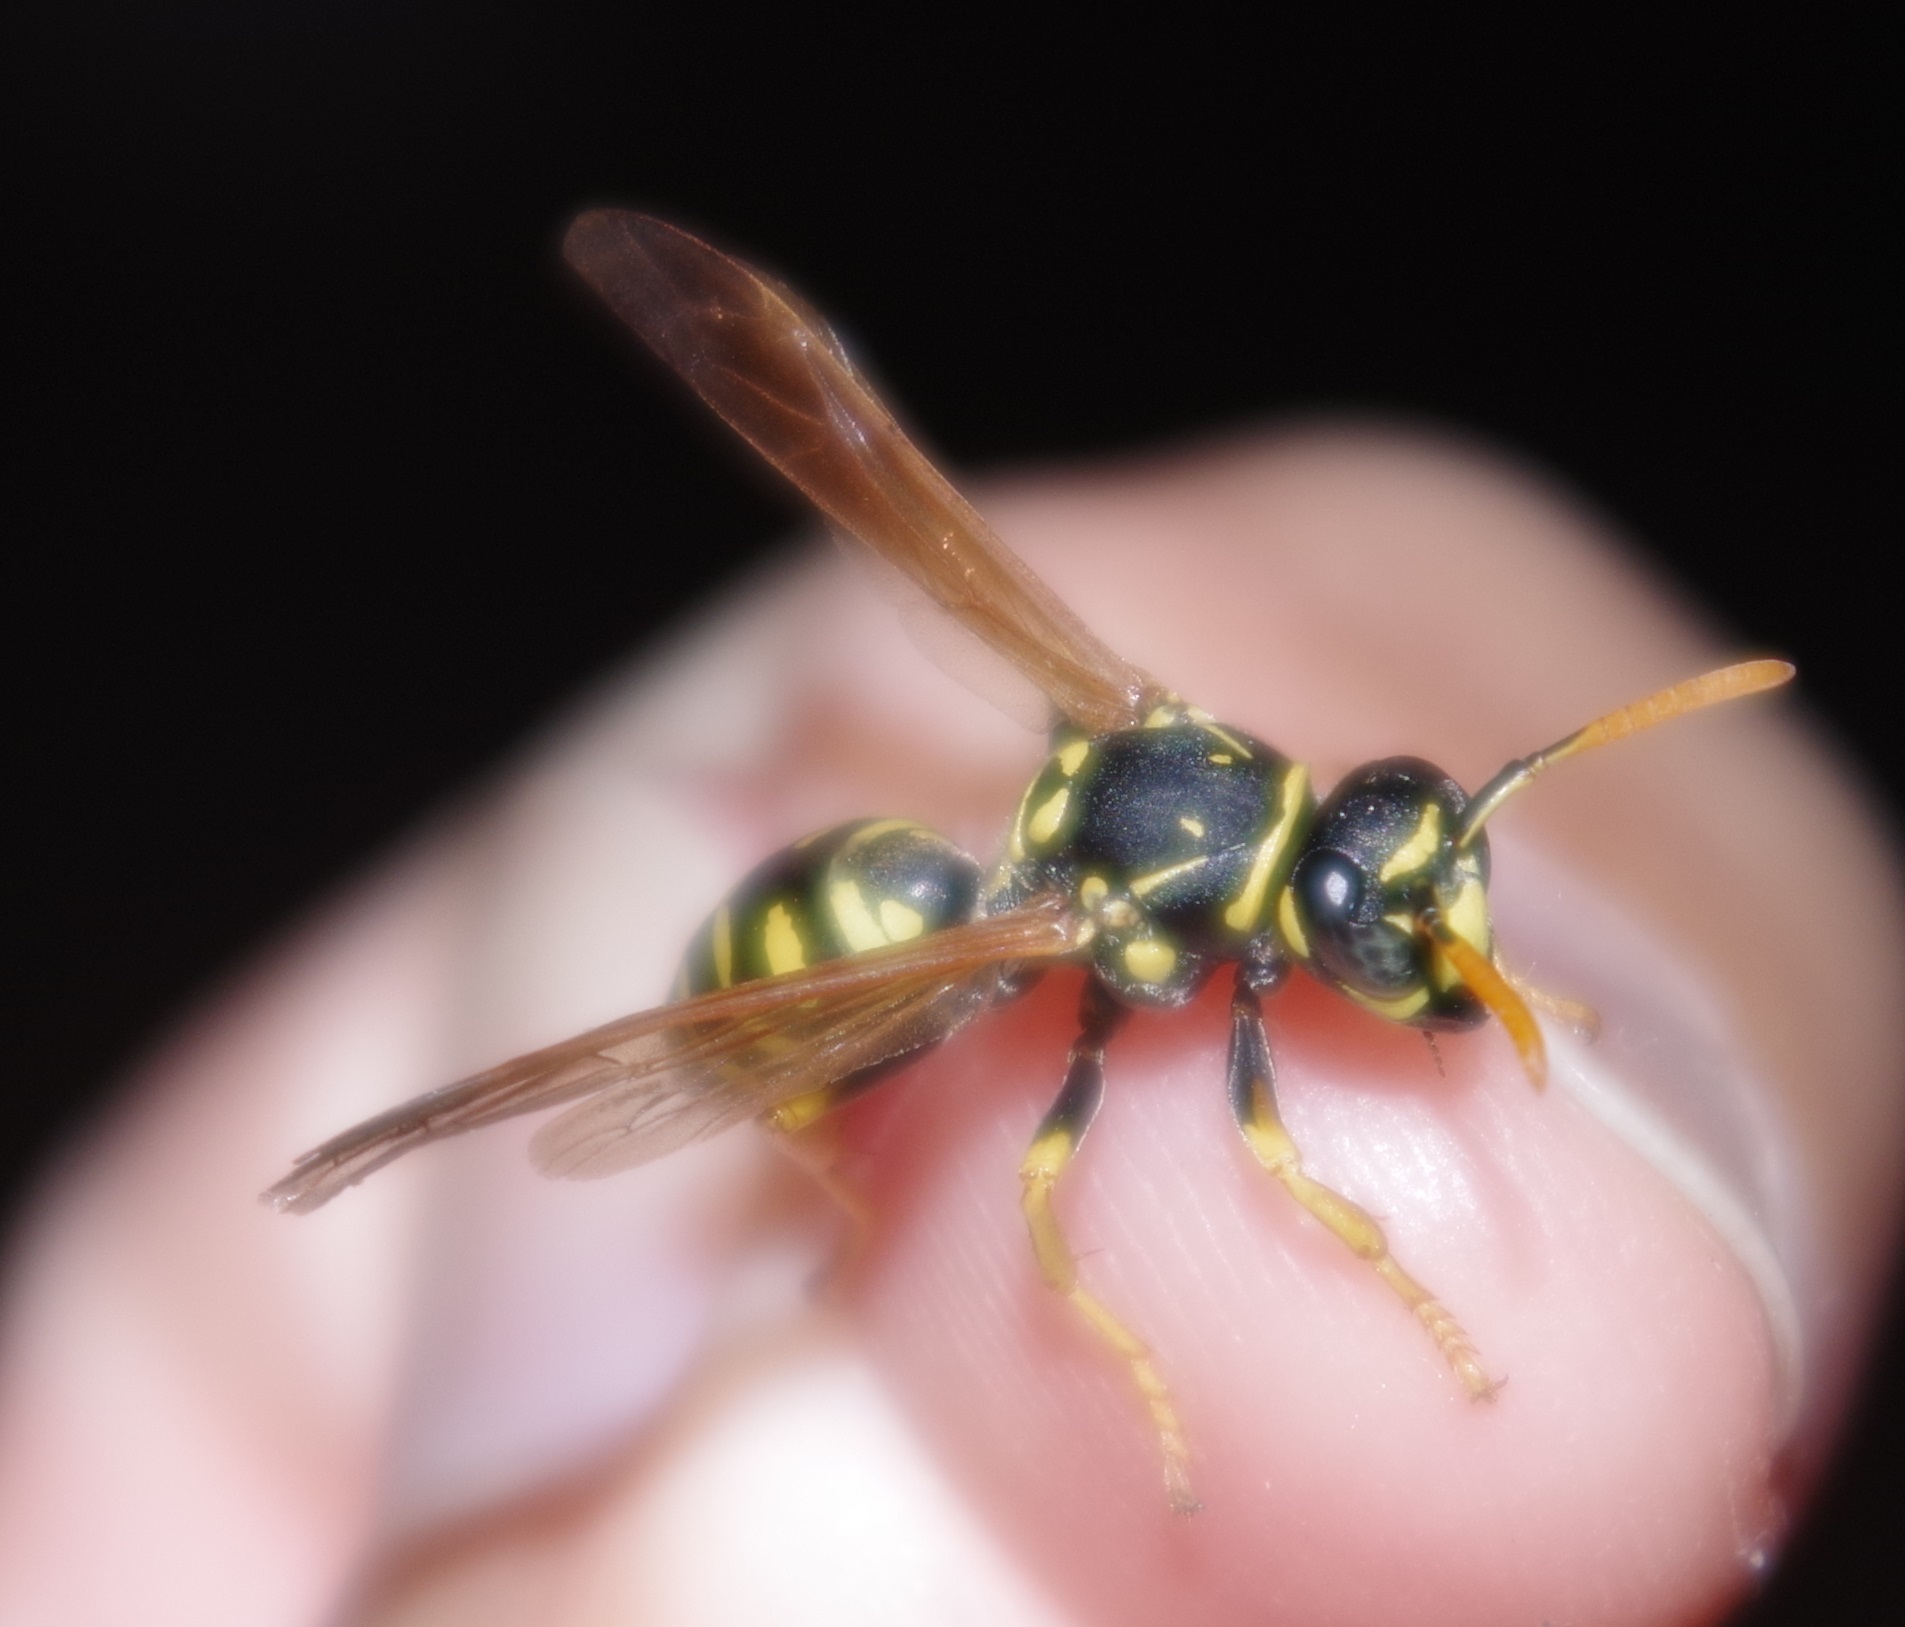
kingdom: Animalia
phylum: Arthropoda
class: Insecta
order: Hymenoptera
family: Eumenidae
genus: Polistes
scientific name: Polistes dominula
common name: Paper wasp
